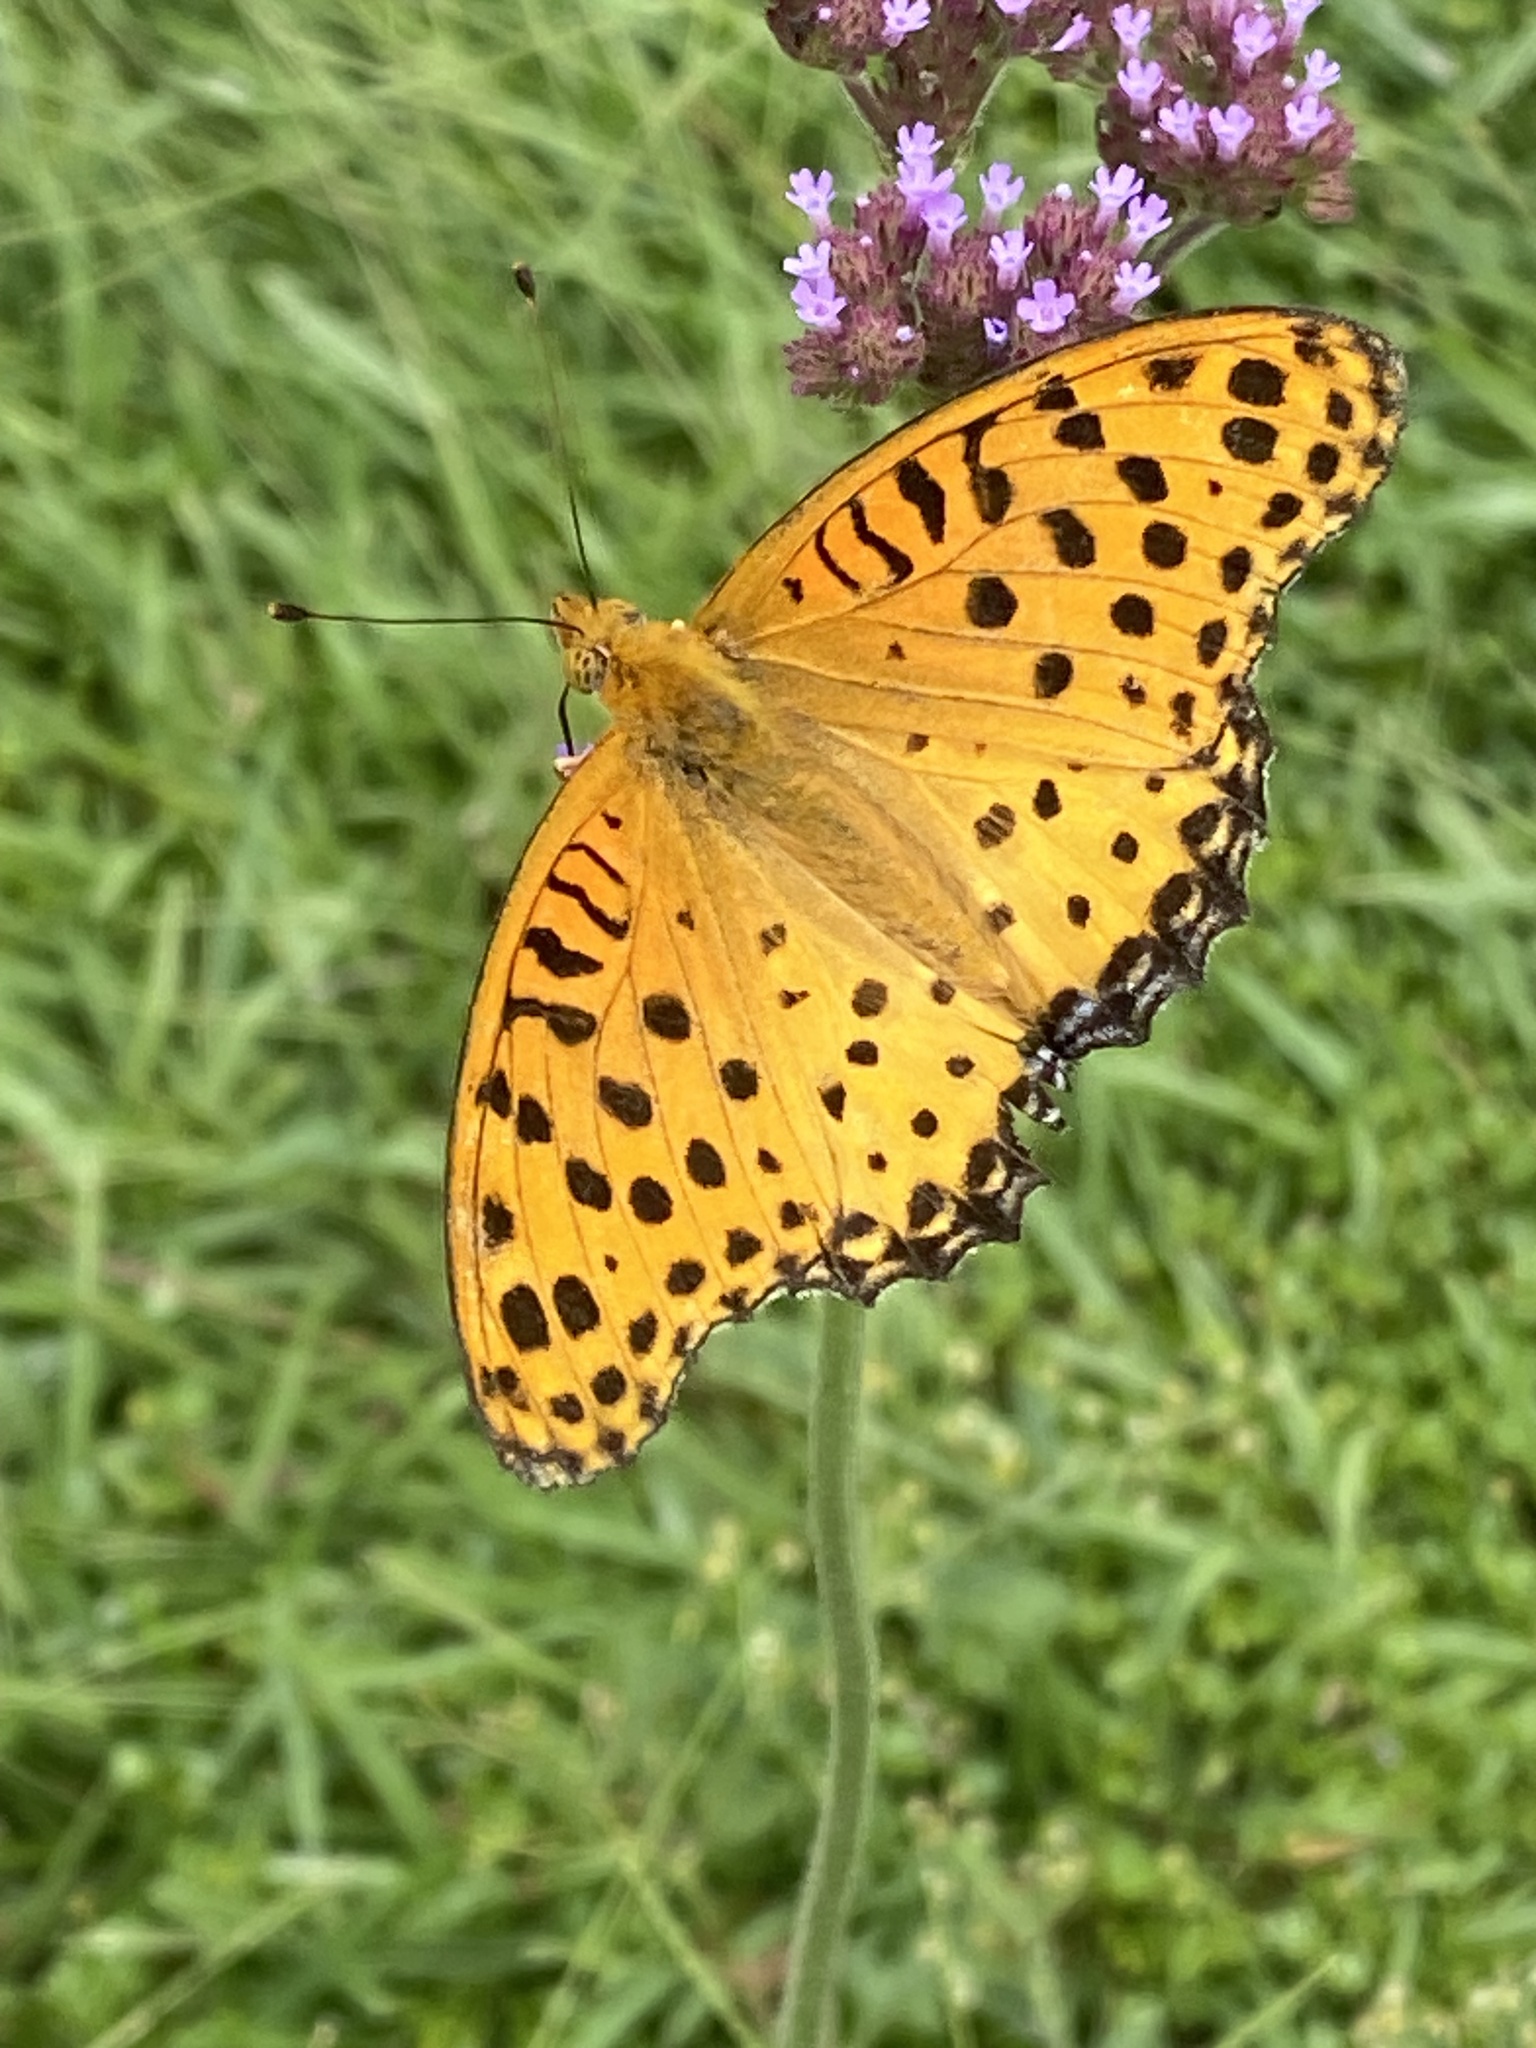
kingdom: Animalia
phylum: Arthropoda
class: Insecta
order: Lepidoptera
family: Nymphalidae
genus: Argynnis
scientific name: Argynnis hyperbius
